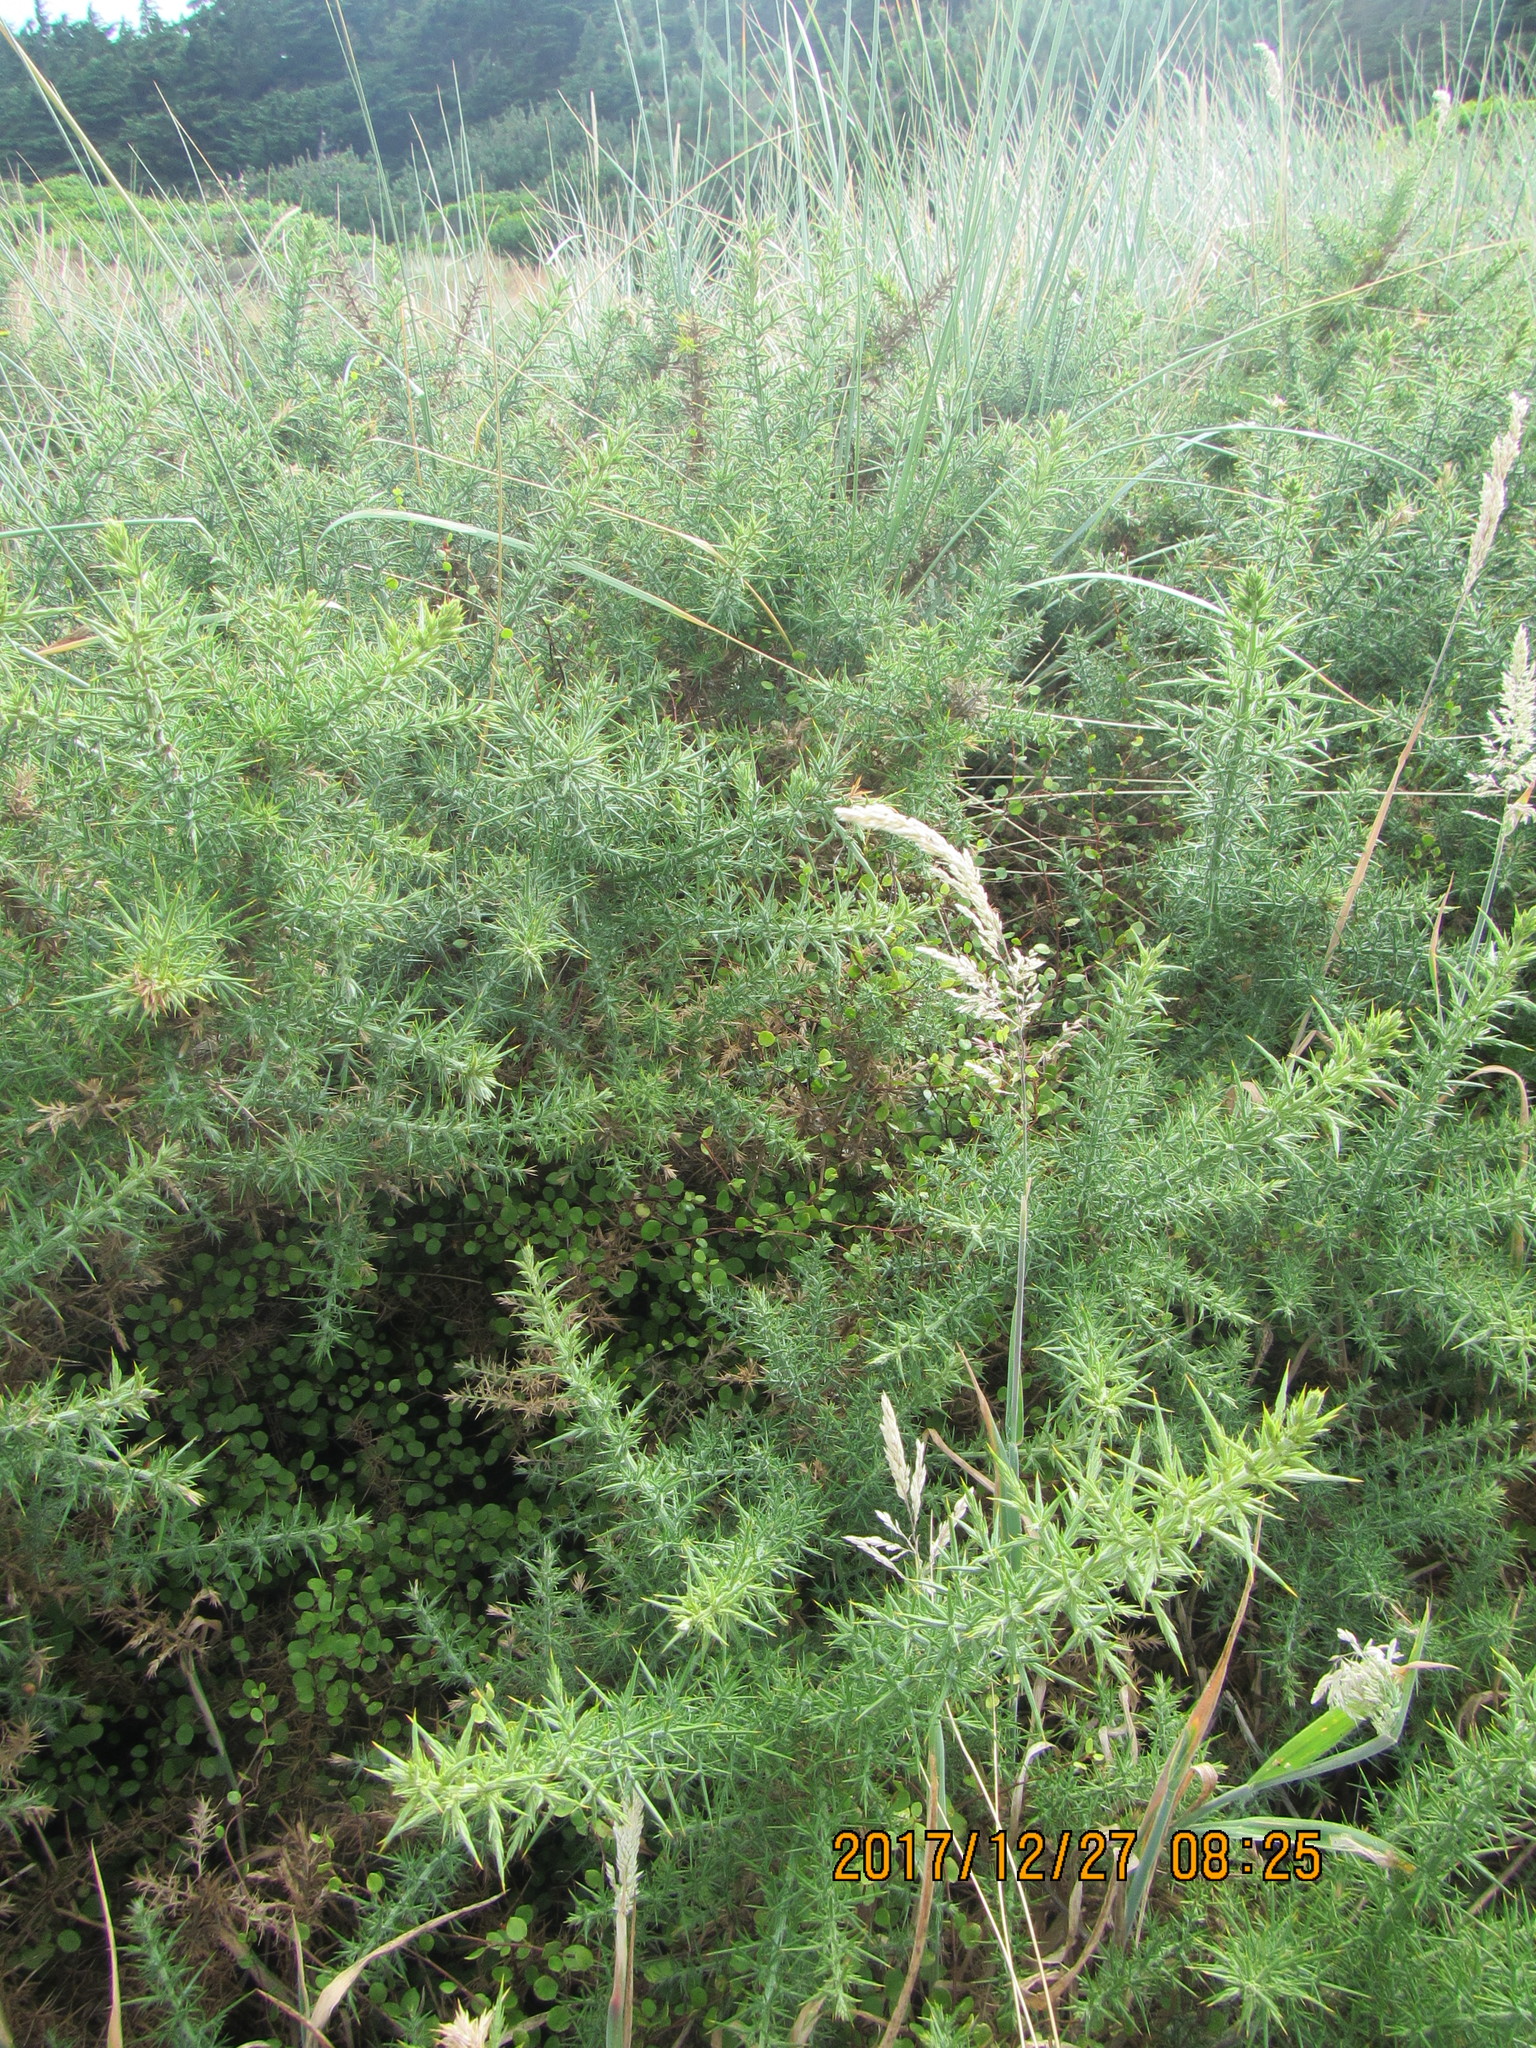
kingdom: Plantae
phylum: Tracheophyta
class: Magnoliopsida
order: Fabales
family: Fabaceae
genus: Ulex
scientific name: Ulex europaeus
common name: Common gorse
